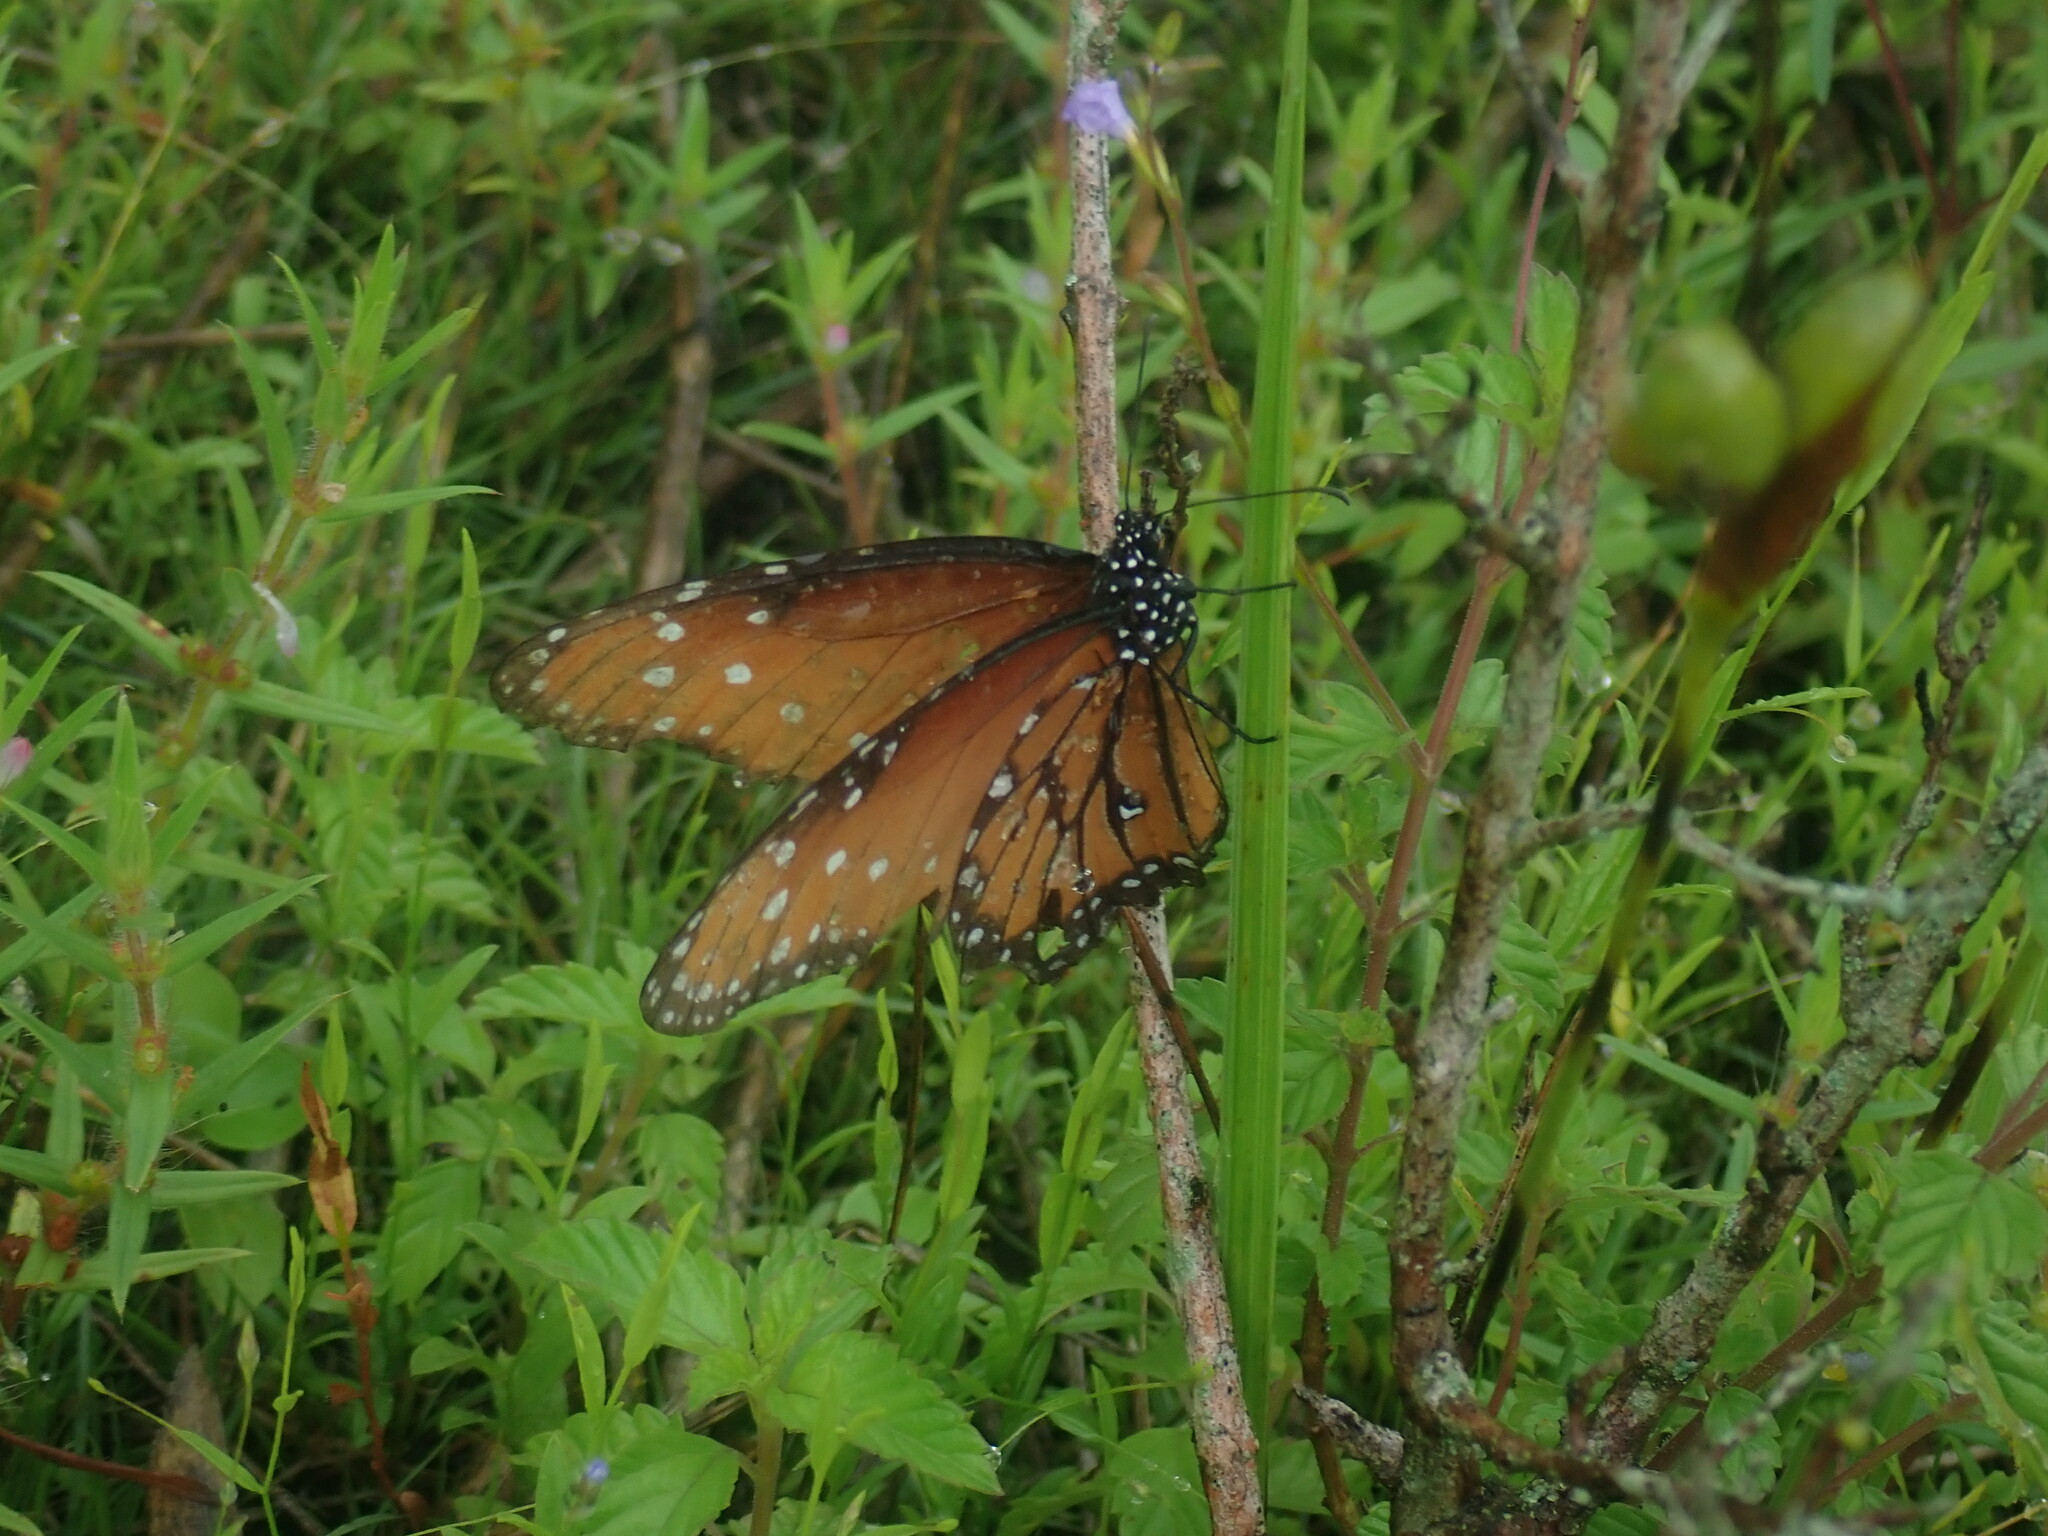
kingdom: Animalia
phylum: Arthropoda
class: Insecta
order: Lepidoptera
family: Nymphalidae
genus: Danaus
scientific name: Danaus gilippus
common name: Queen
